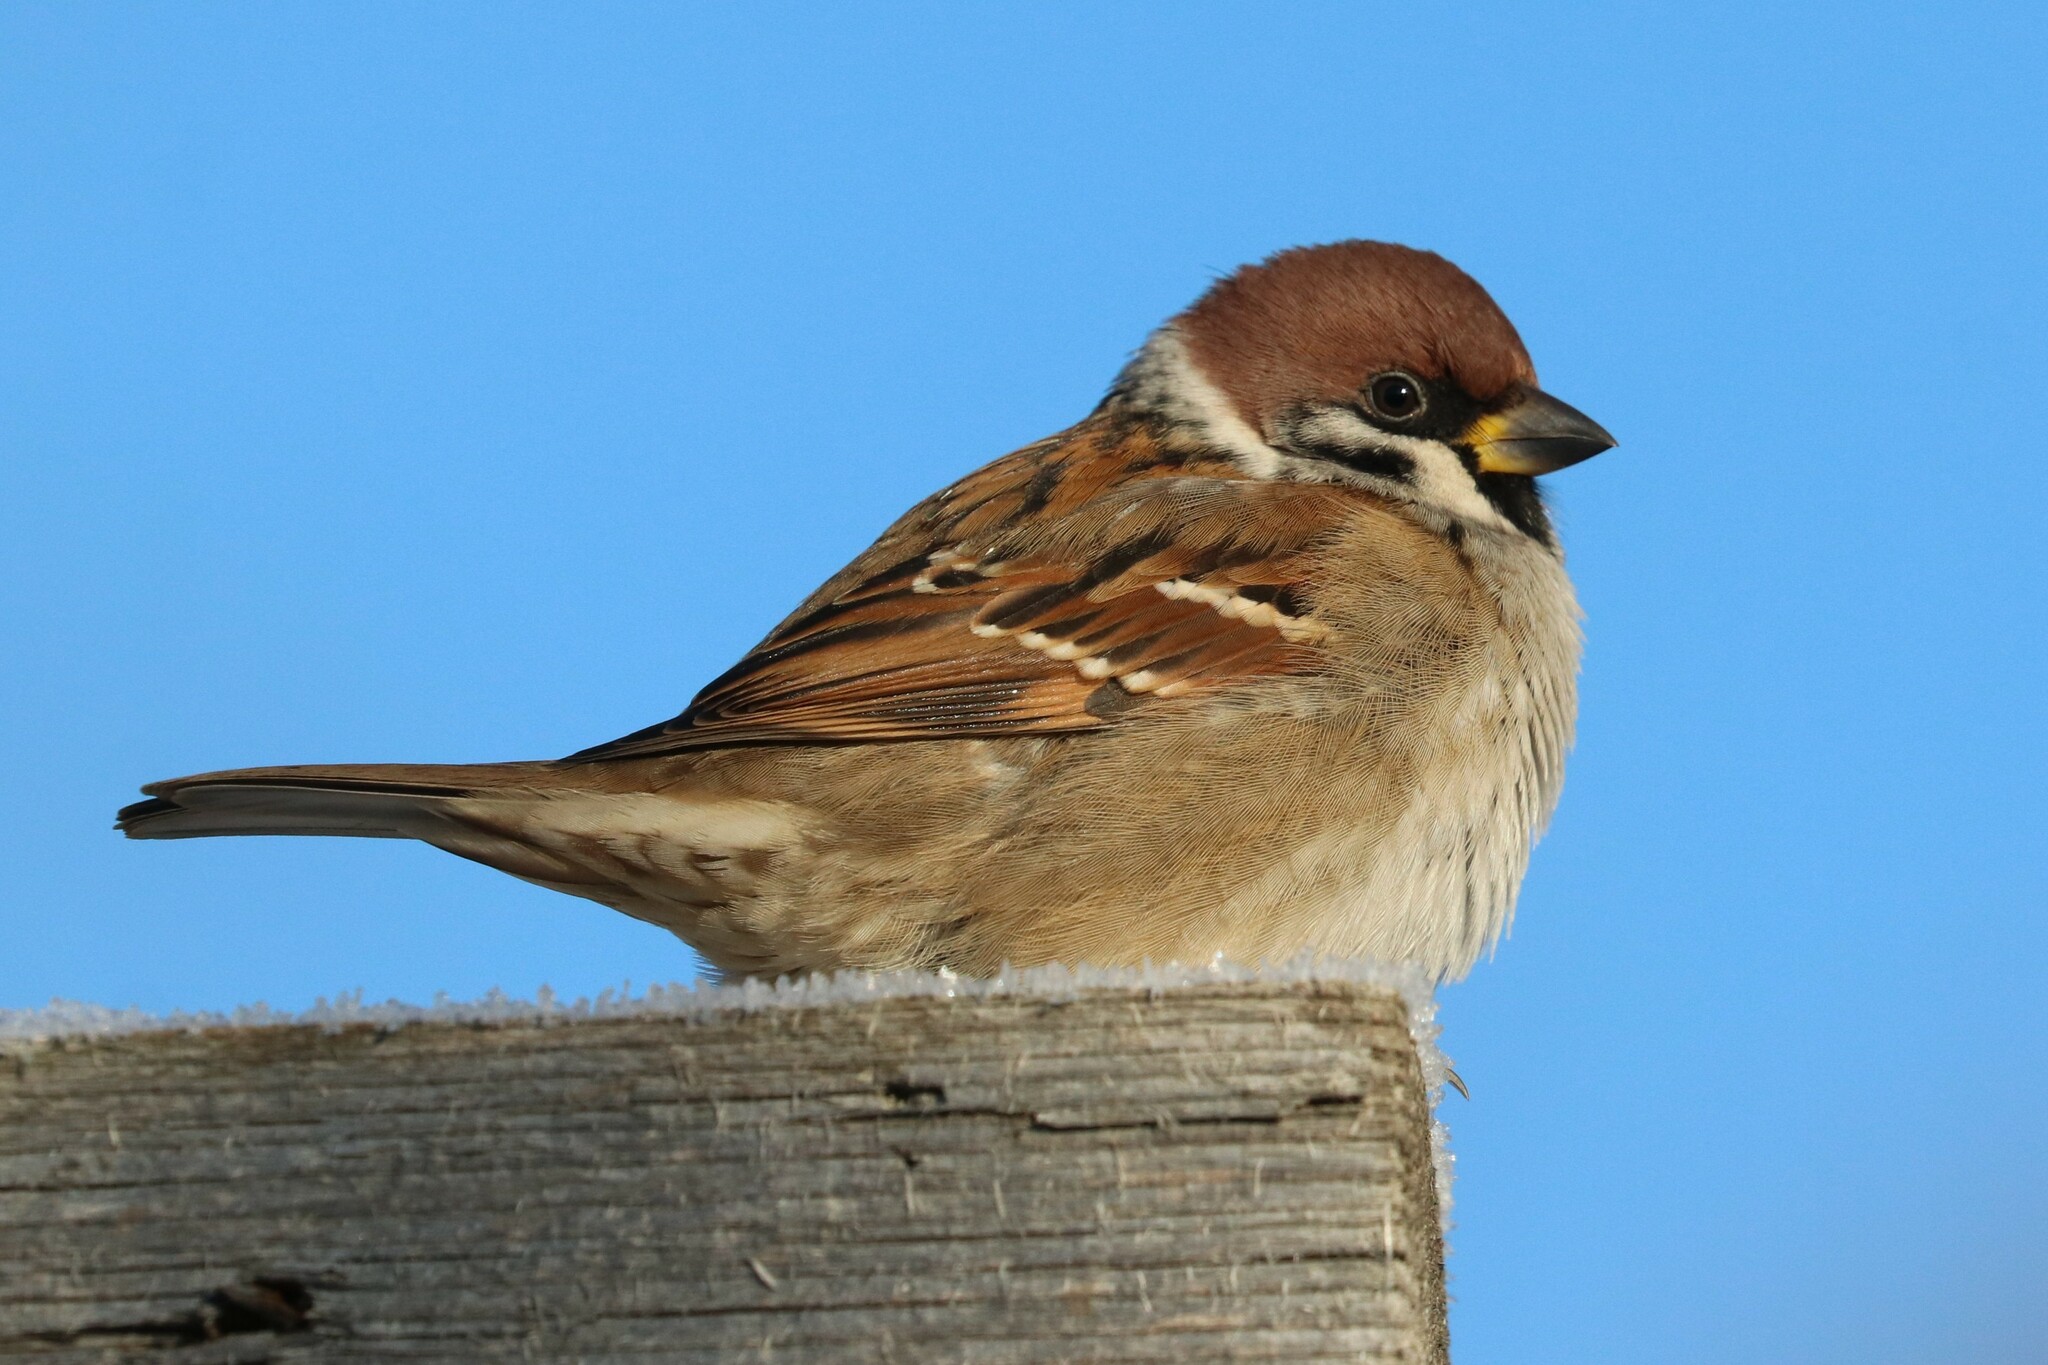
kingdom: Animalia
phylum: Chordata
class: Aves
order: Passeriformes
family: Passeridae
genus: Passer
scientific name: Passer montanus
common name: Eurasian tree sparrow
